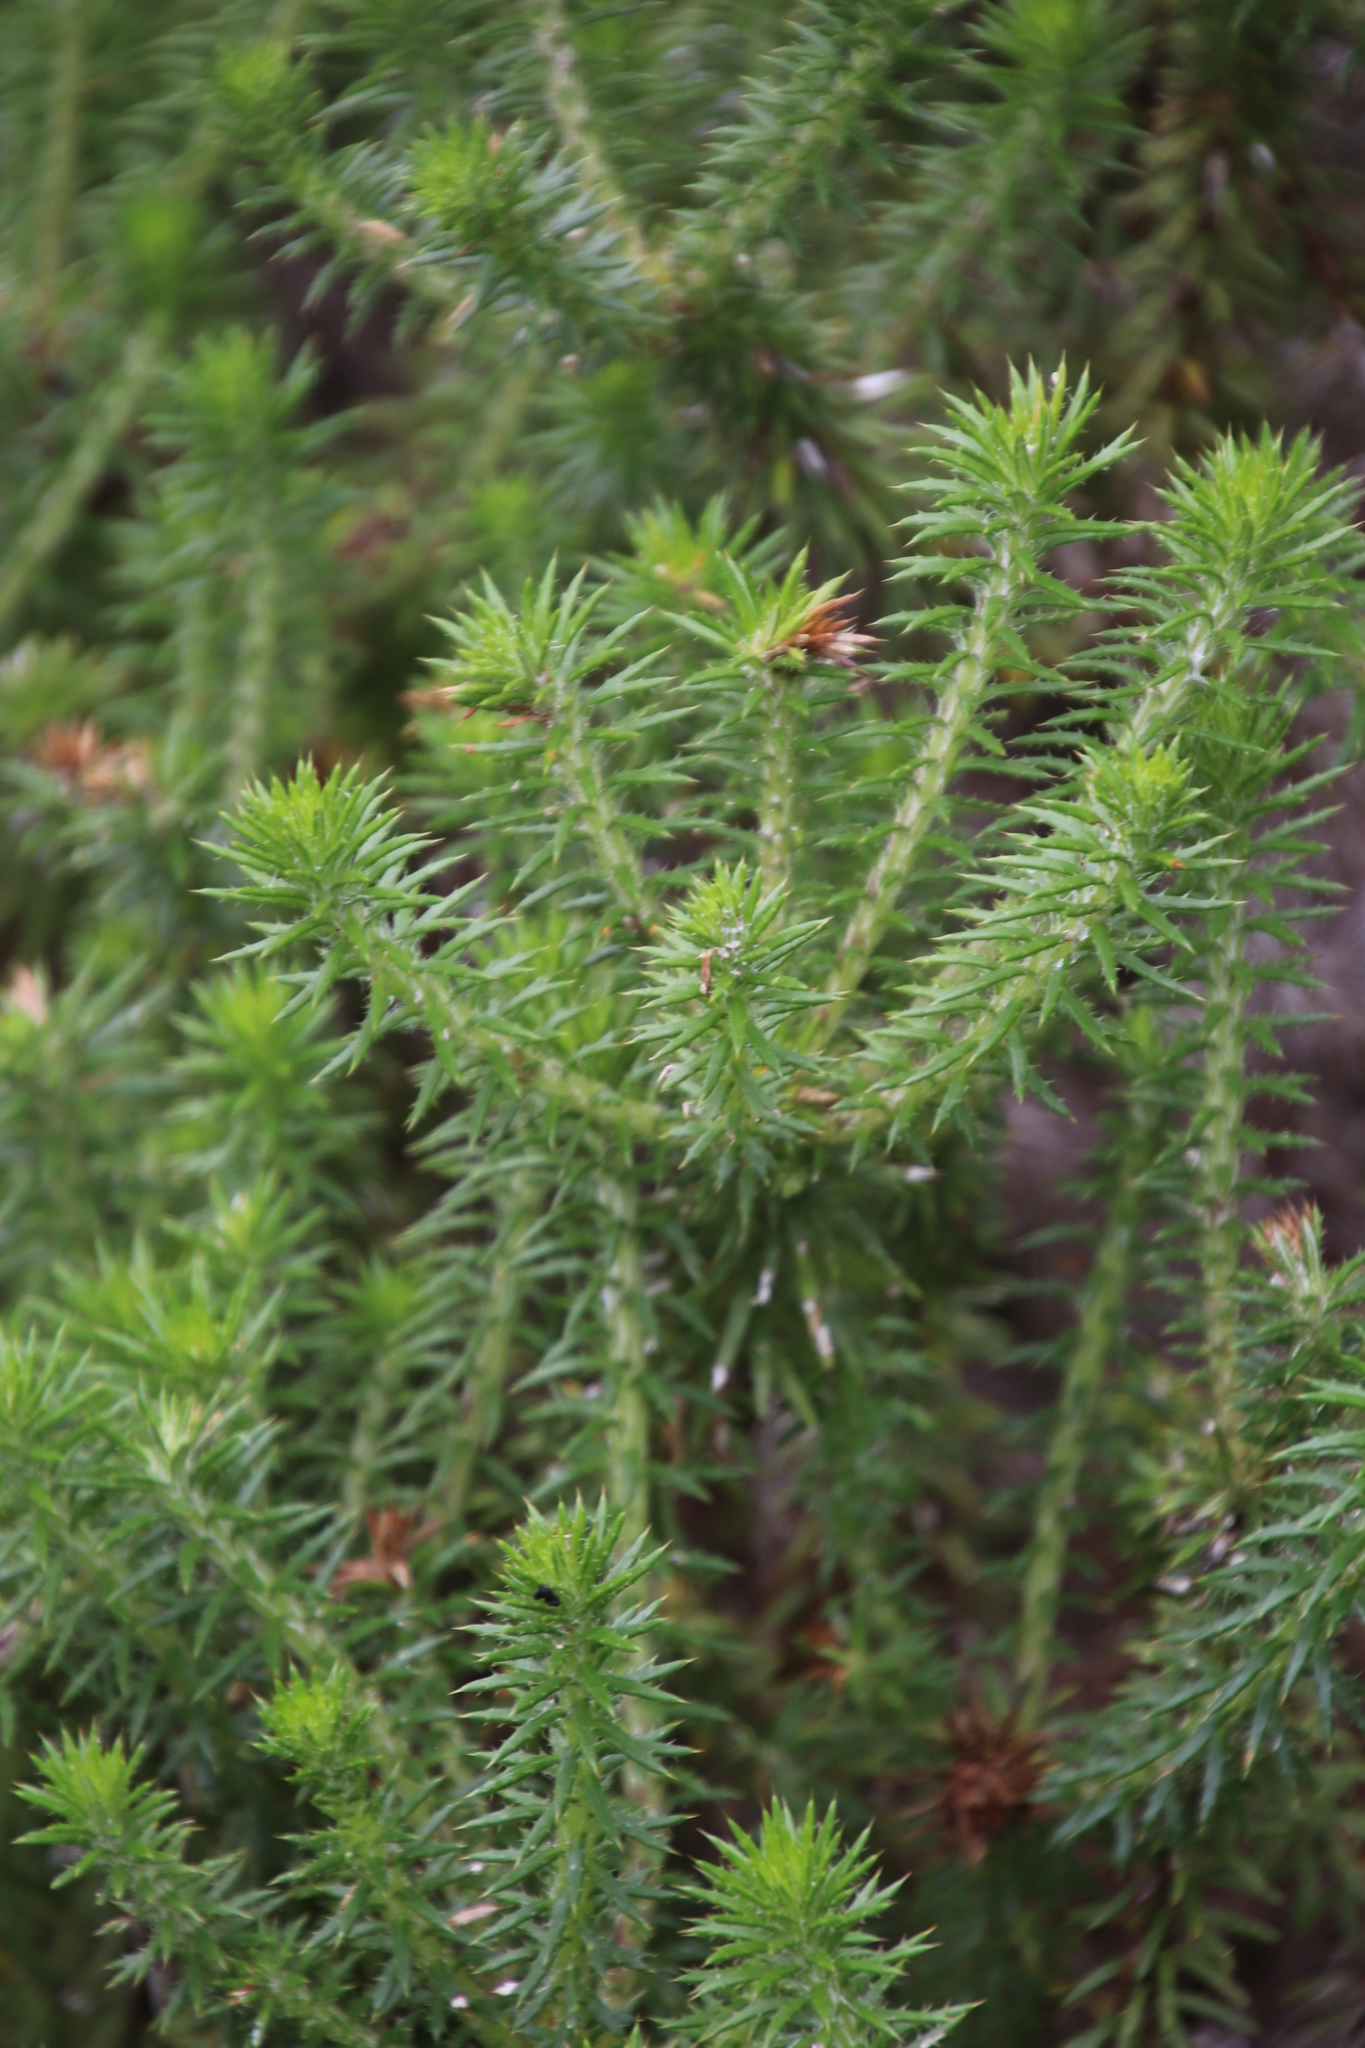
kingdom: Plantae
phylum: Tracheophyta
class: Magnoliopsida
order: Asterales
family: Asteraceae
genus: Cullumia
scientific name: Cullumia squarrosa
